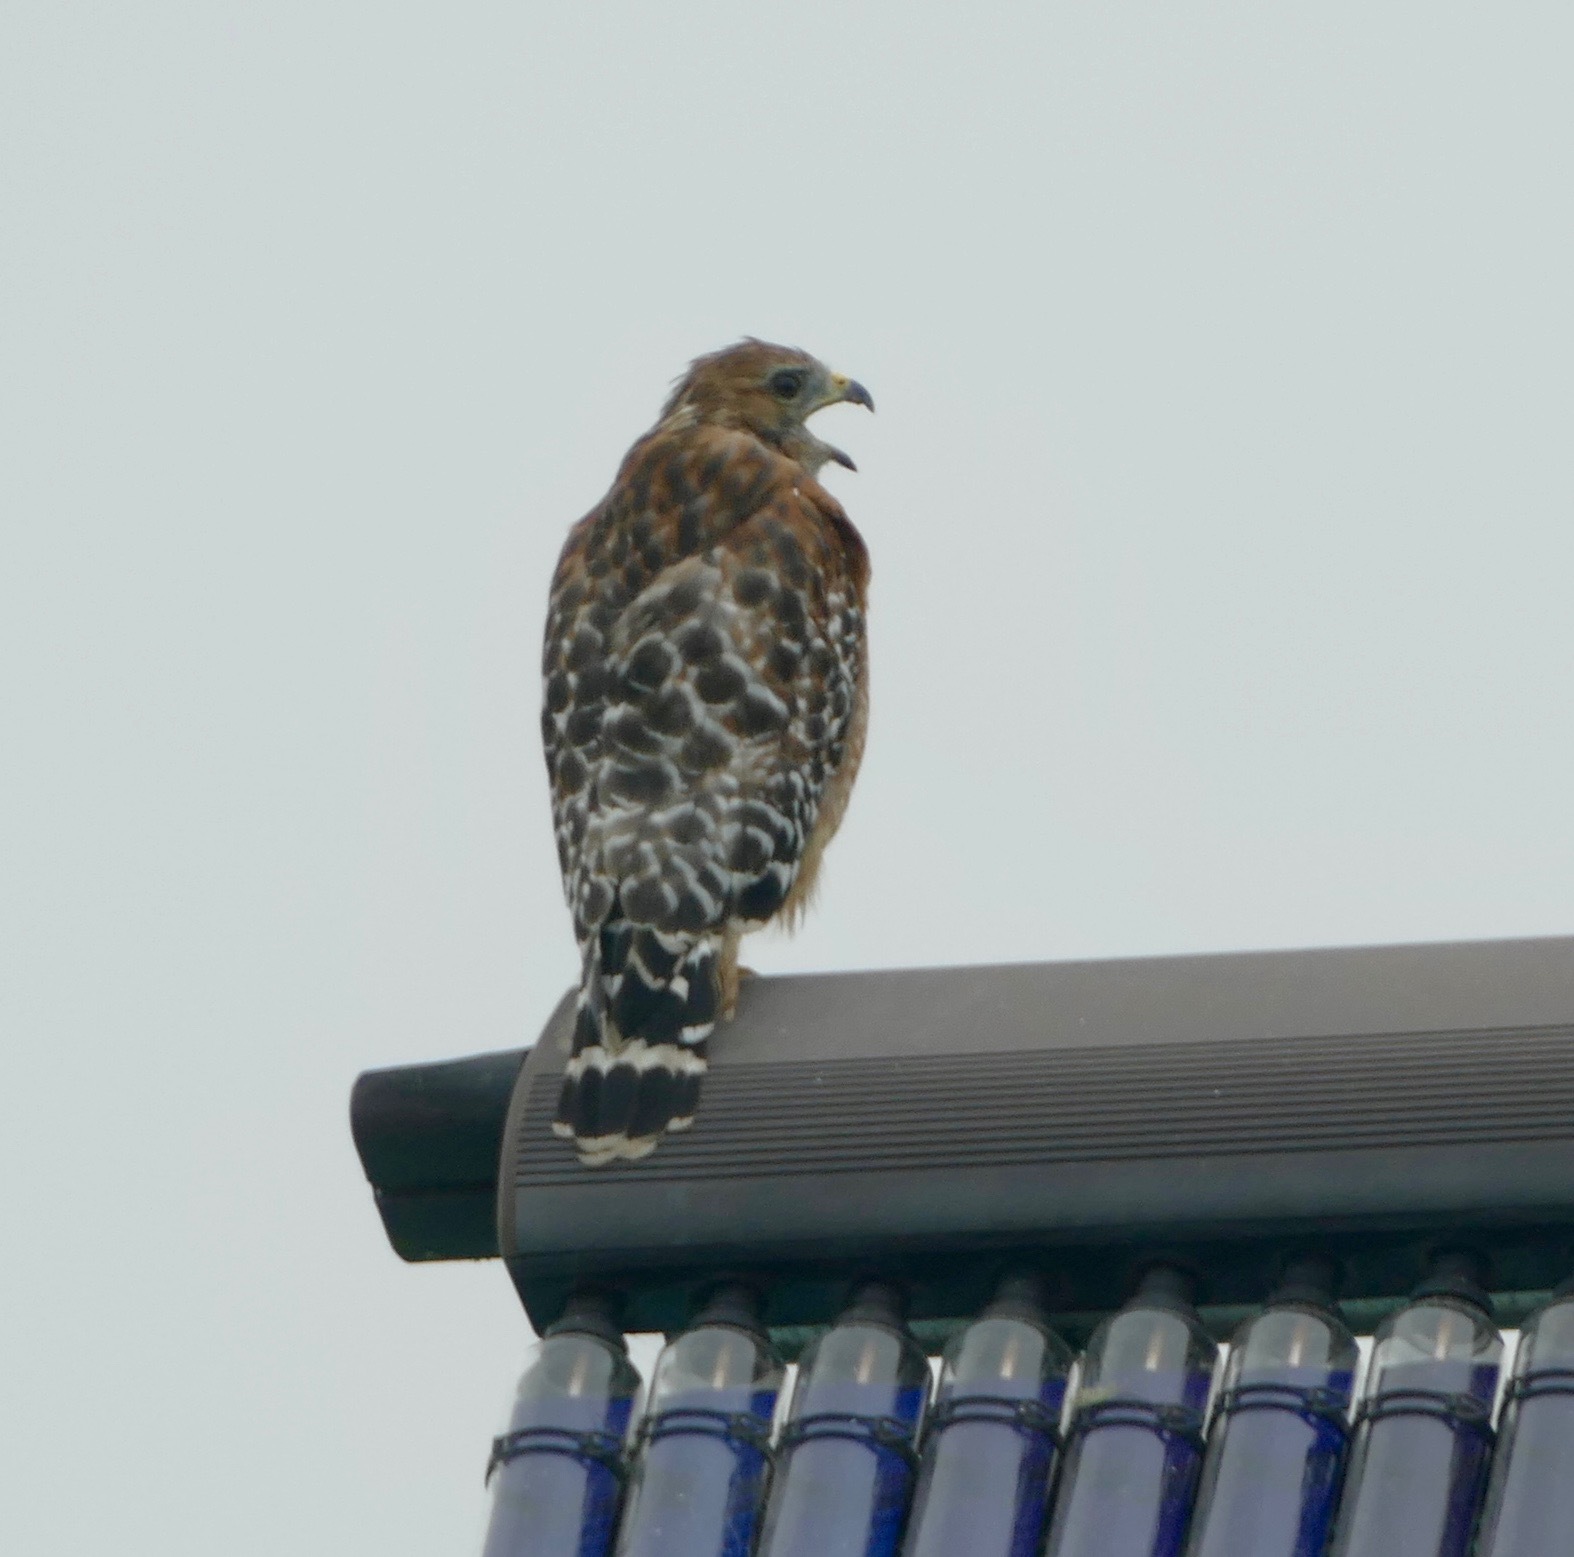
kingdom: Animalia
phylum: Chordata
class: Aves
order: Accipitriformes
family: Accipitridae
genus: Buteo
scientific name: Buteo lineatus
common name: Red-shouldered hawk
